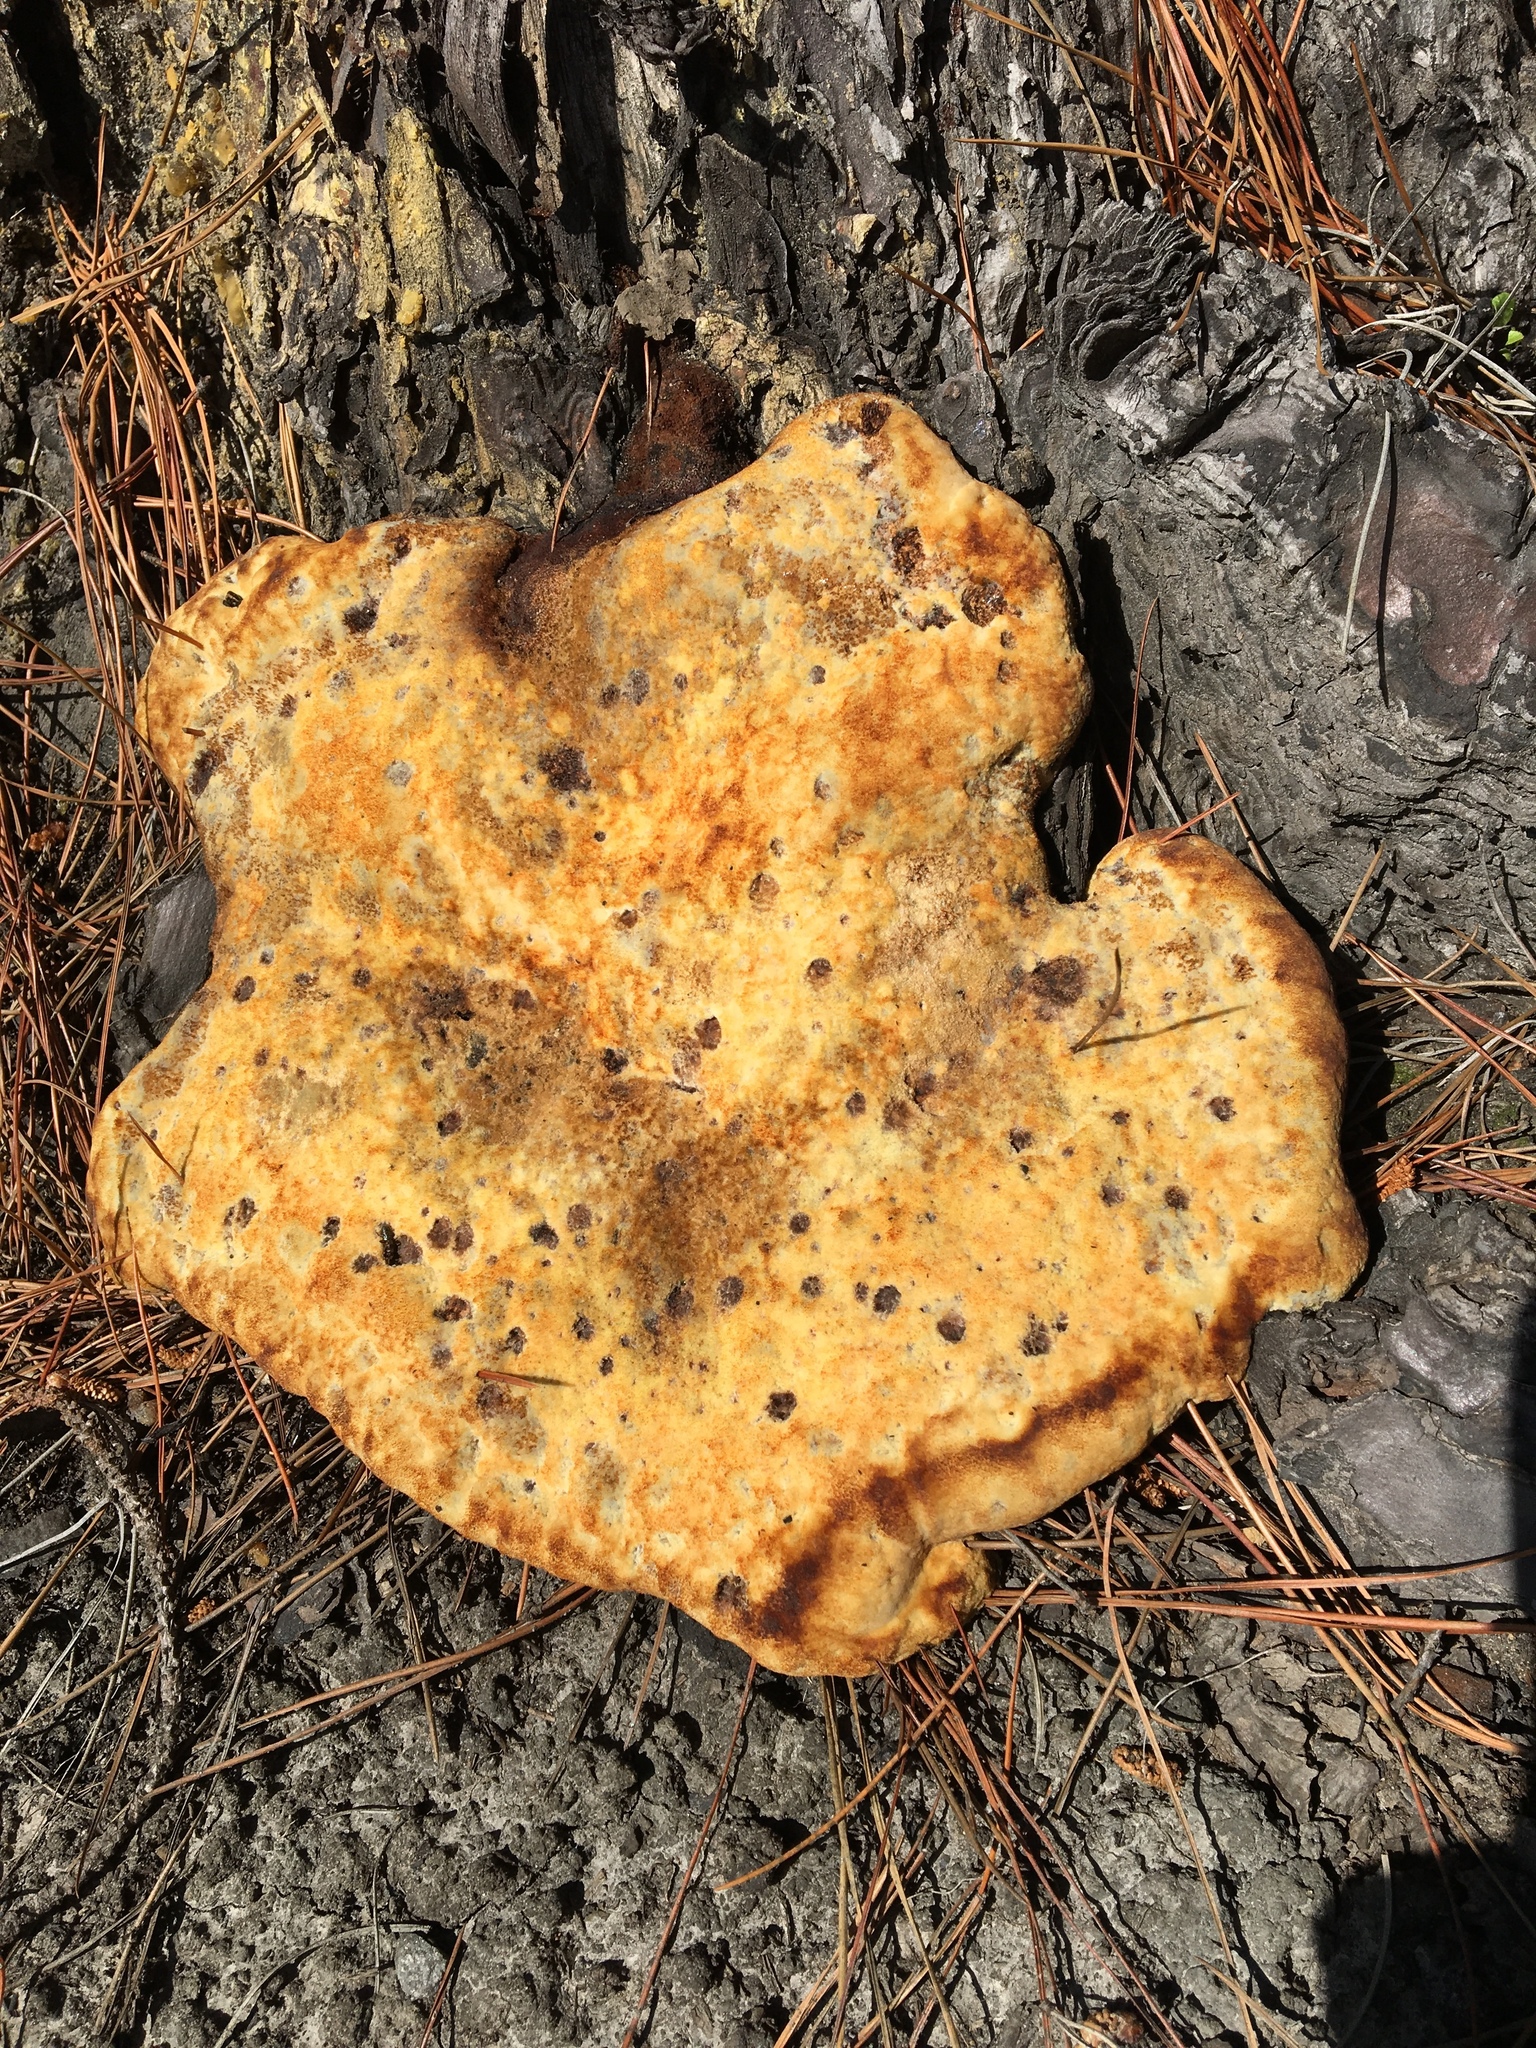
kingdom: Fungi
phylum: Basidiomycota
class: Agaricomycetes
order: Polyporales
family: Laetiporaceae
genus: Phaeolus
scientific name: Phaeolus schweinitzii
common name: Dyer's mazegill
